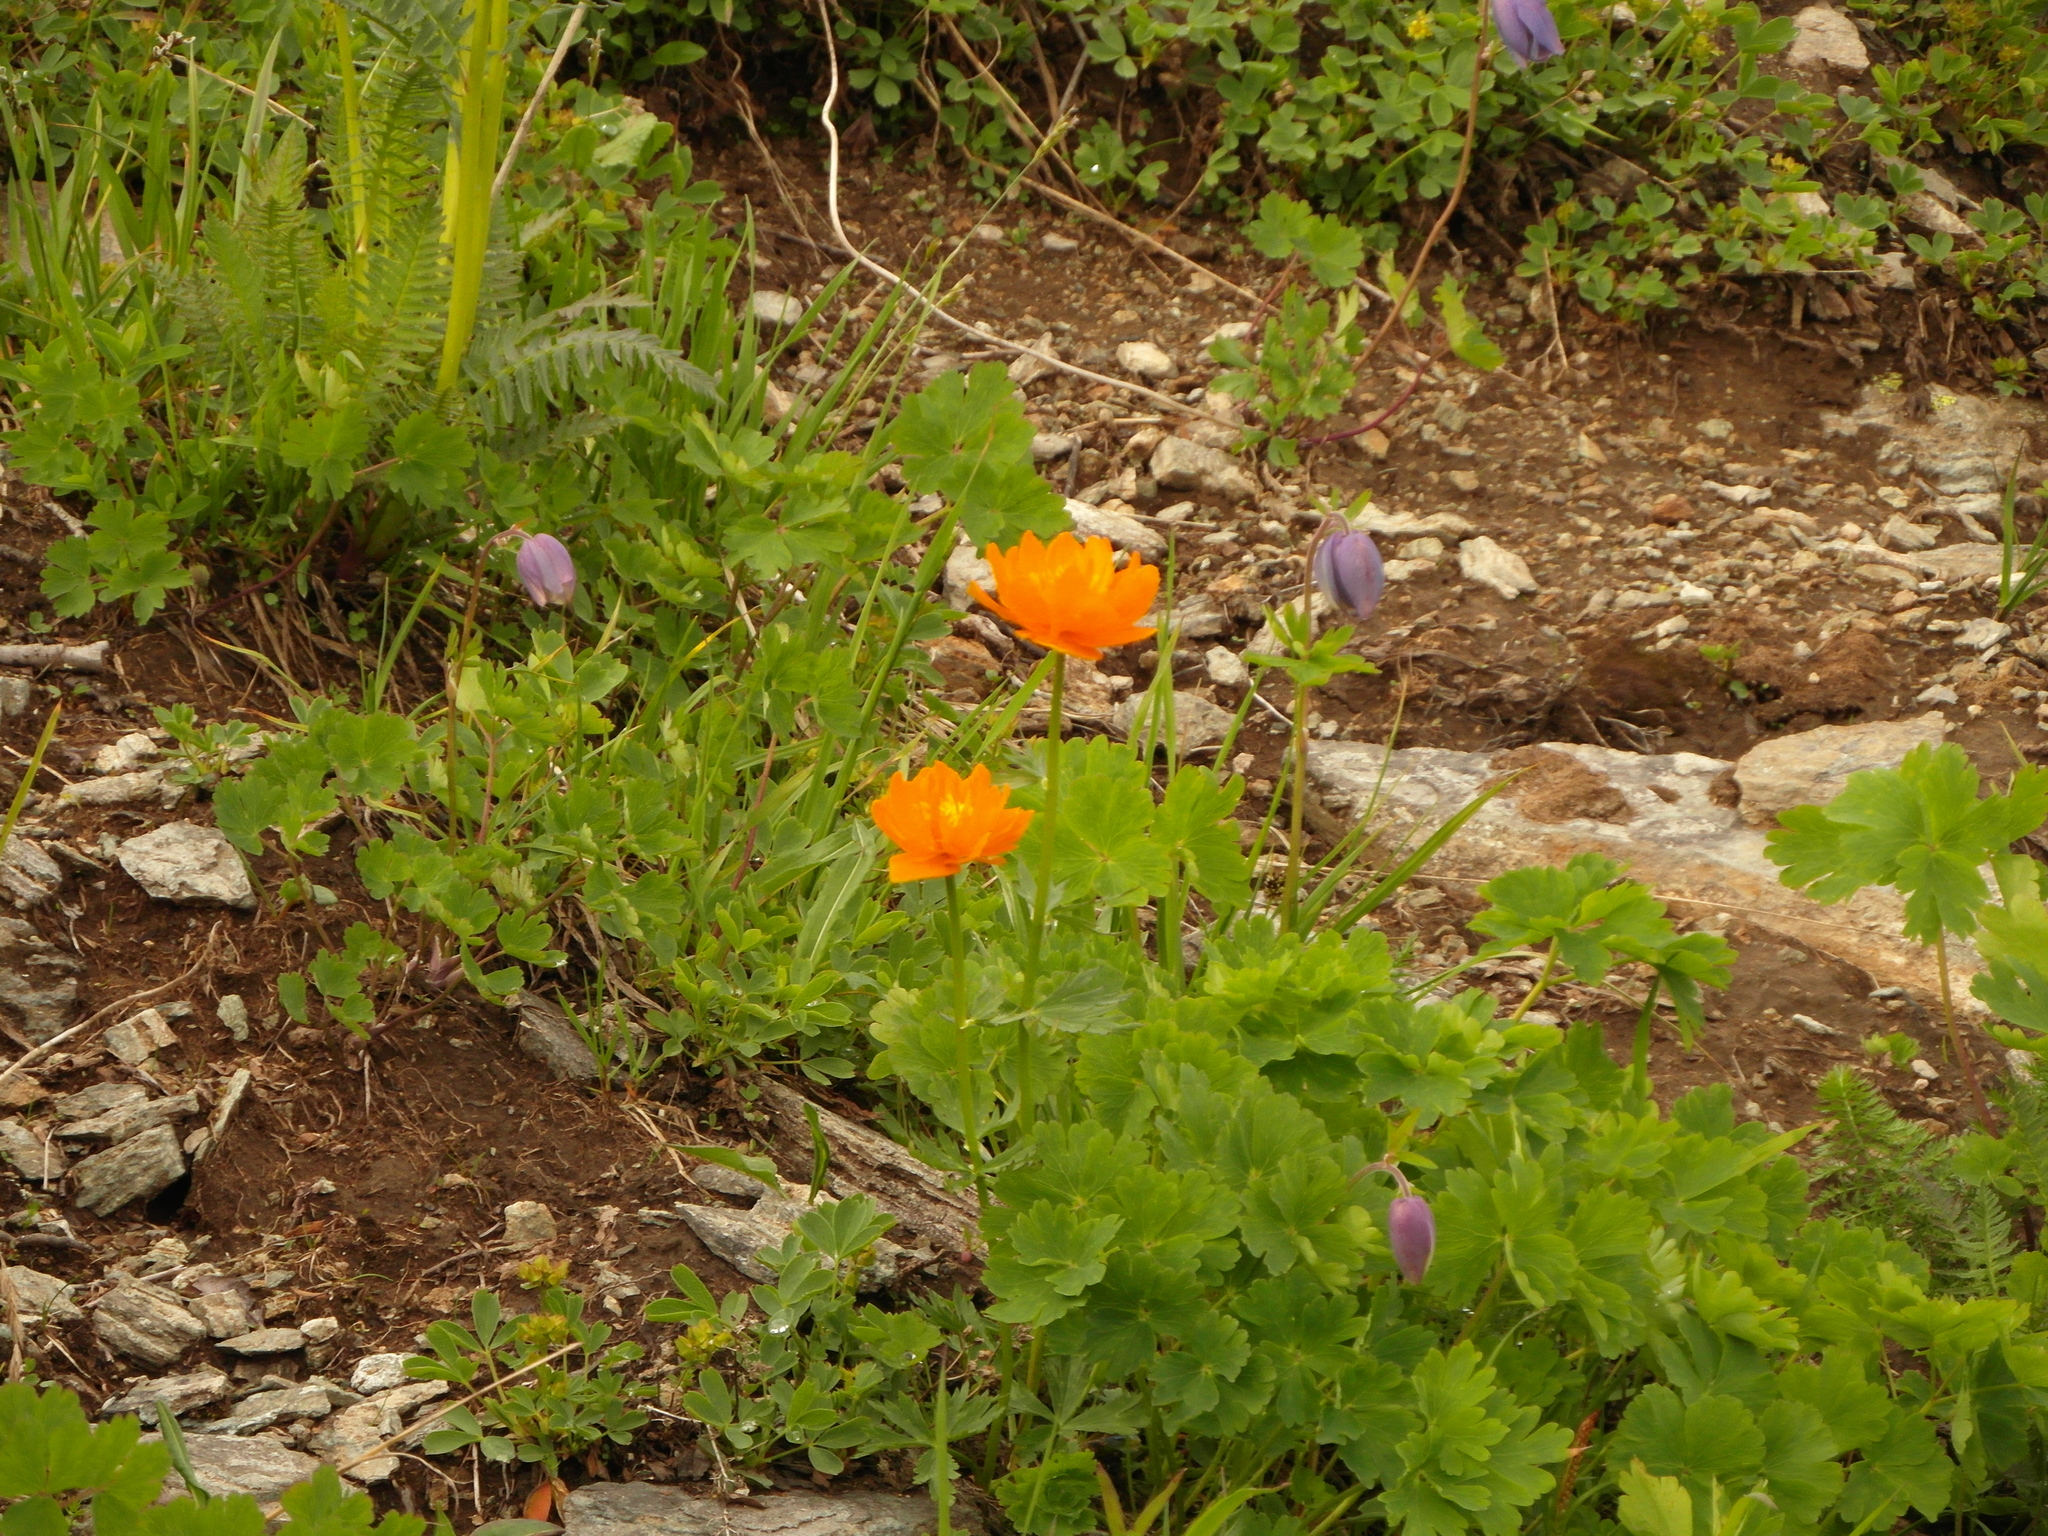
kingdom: Plantae
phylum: Tracheophyta
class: Magnoliopsida
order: Ranunculales
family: Ranunculaceae
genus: Trollius
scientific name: Trollius chinensis
